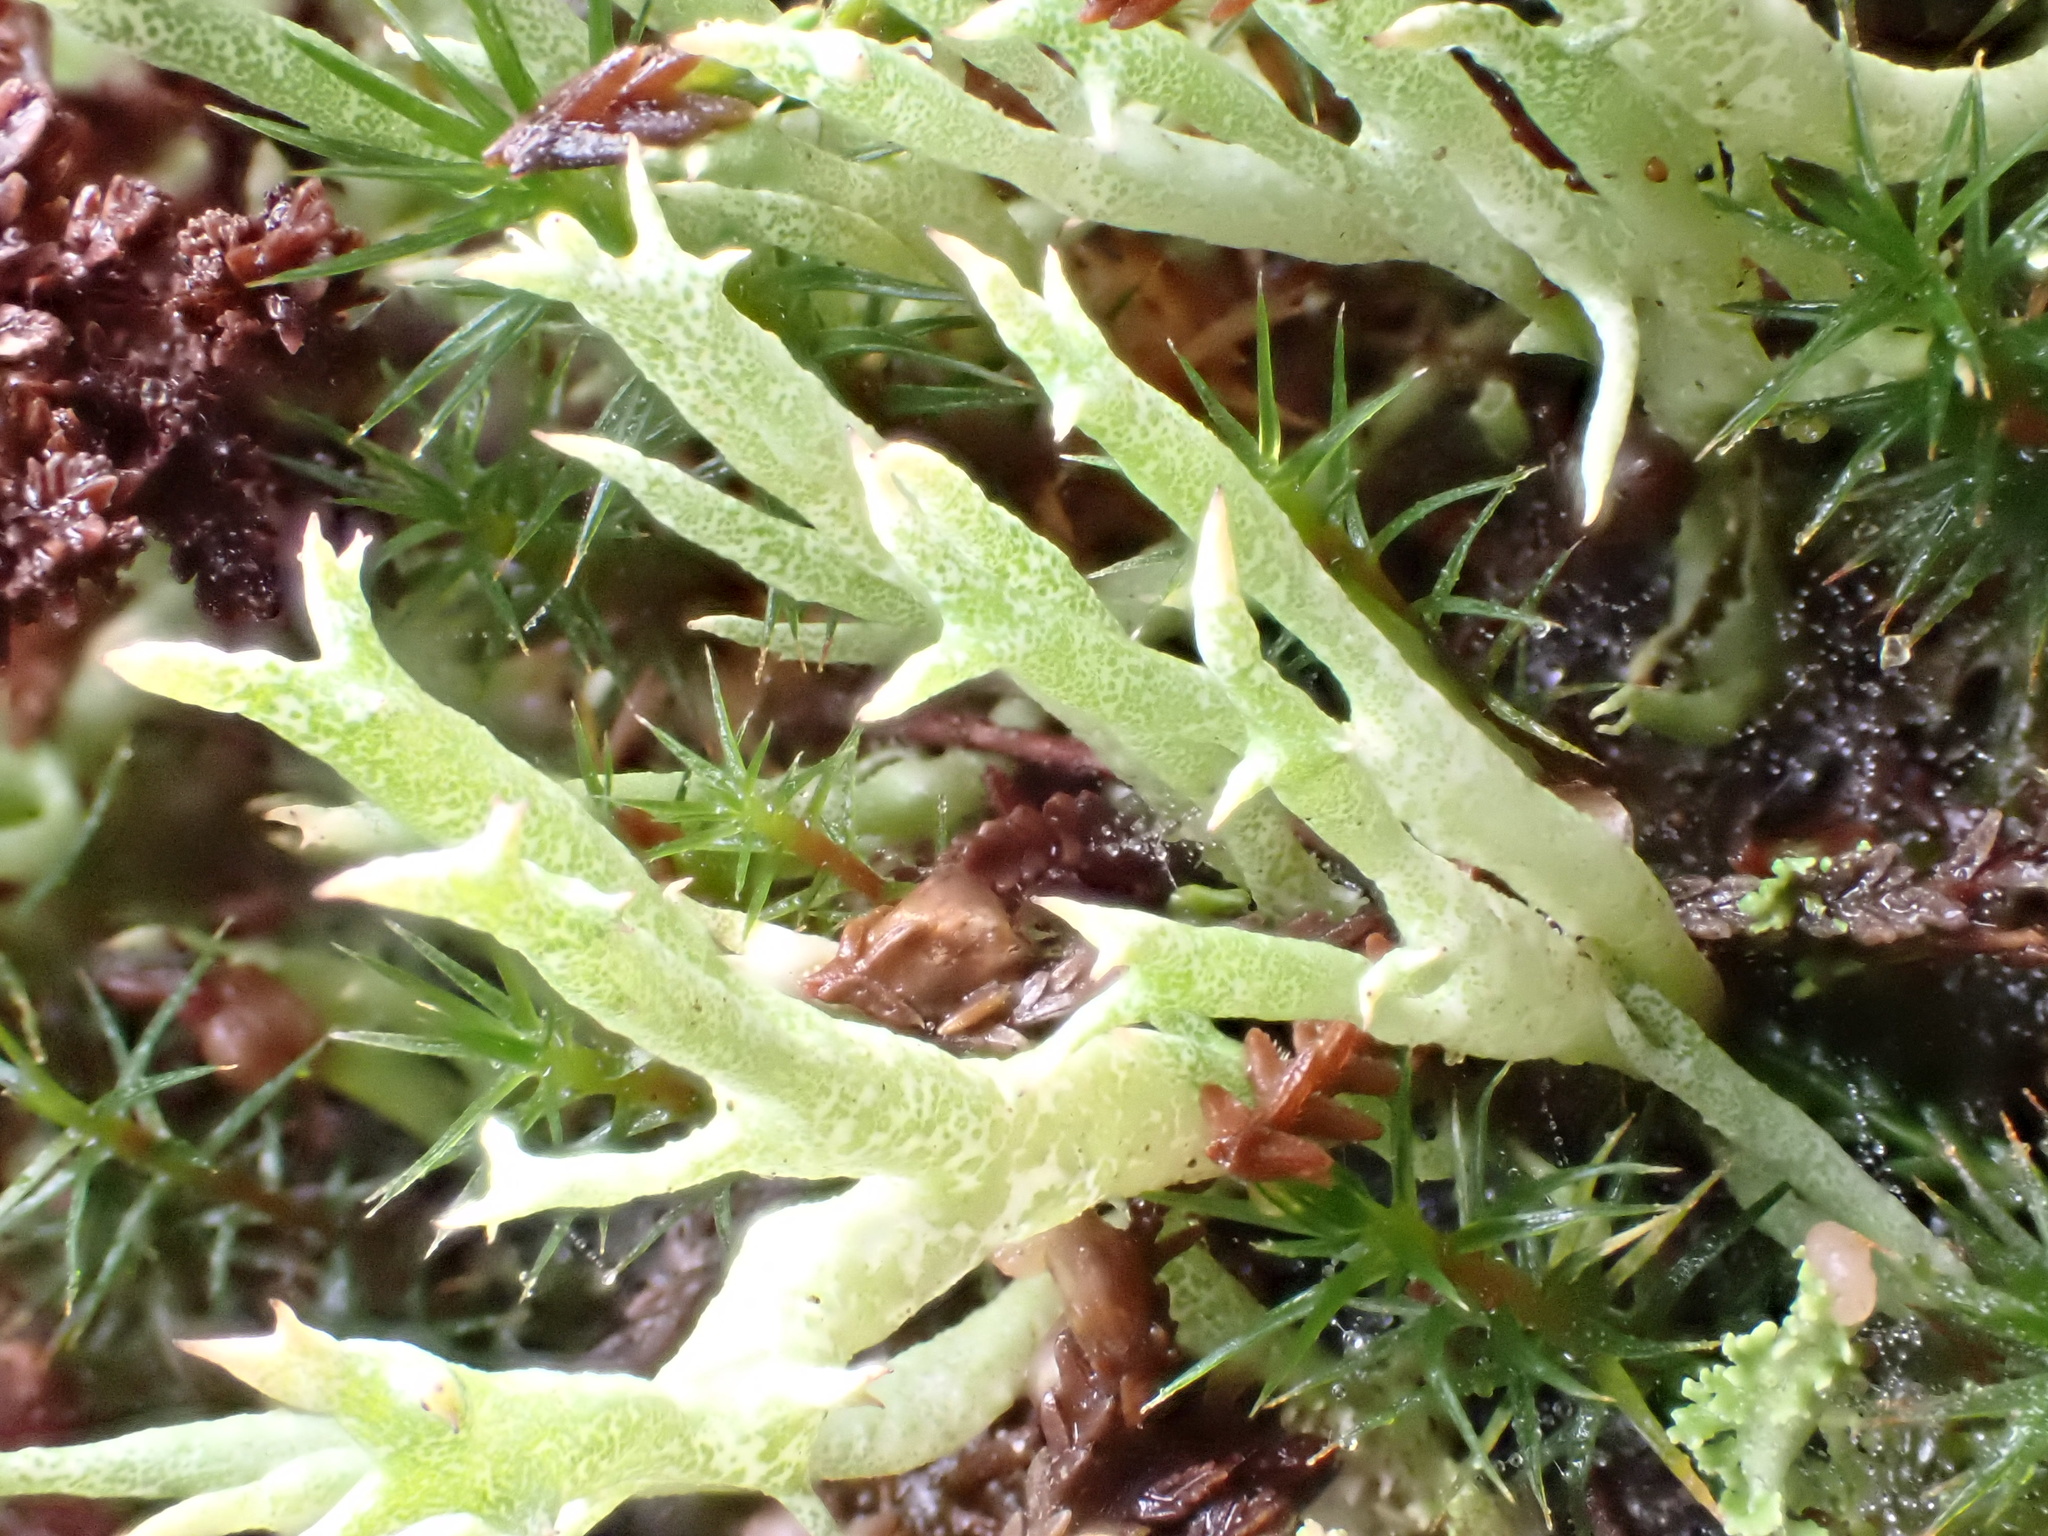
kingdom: Fungi
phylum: Ascomycota
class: Lecanoromycetes
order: Lecanorales
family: Cladoniaceae
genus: Cladonia
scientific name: Cladonia uncialis
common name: Thorn lichen
